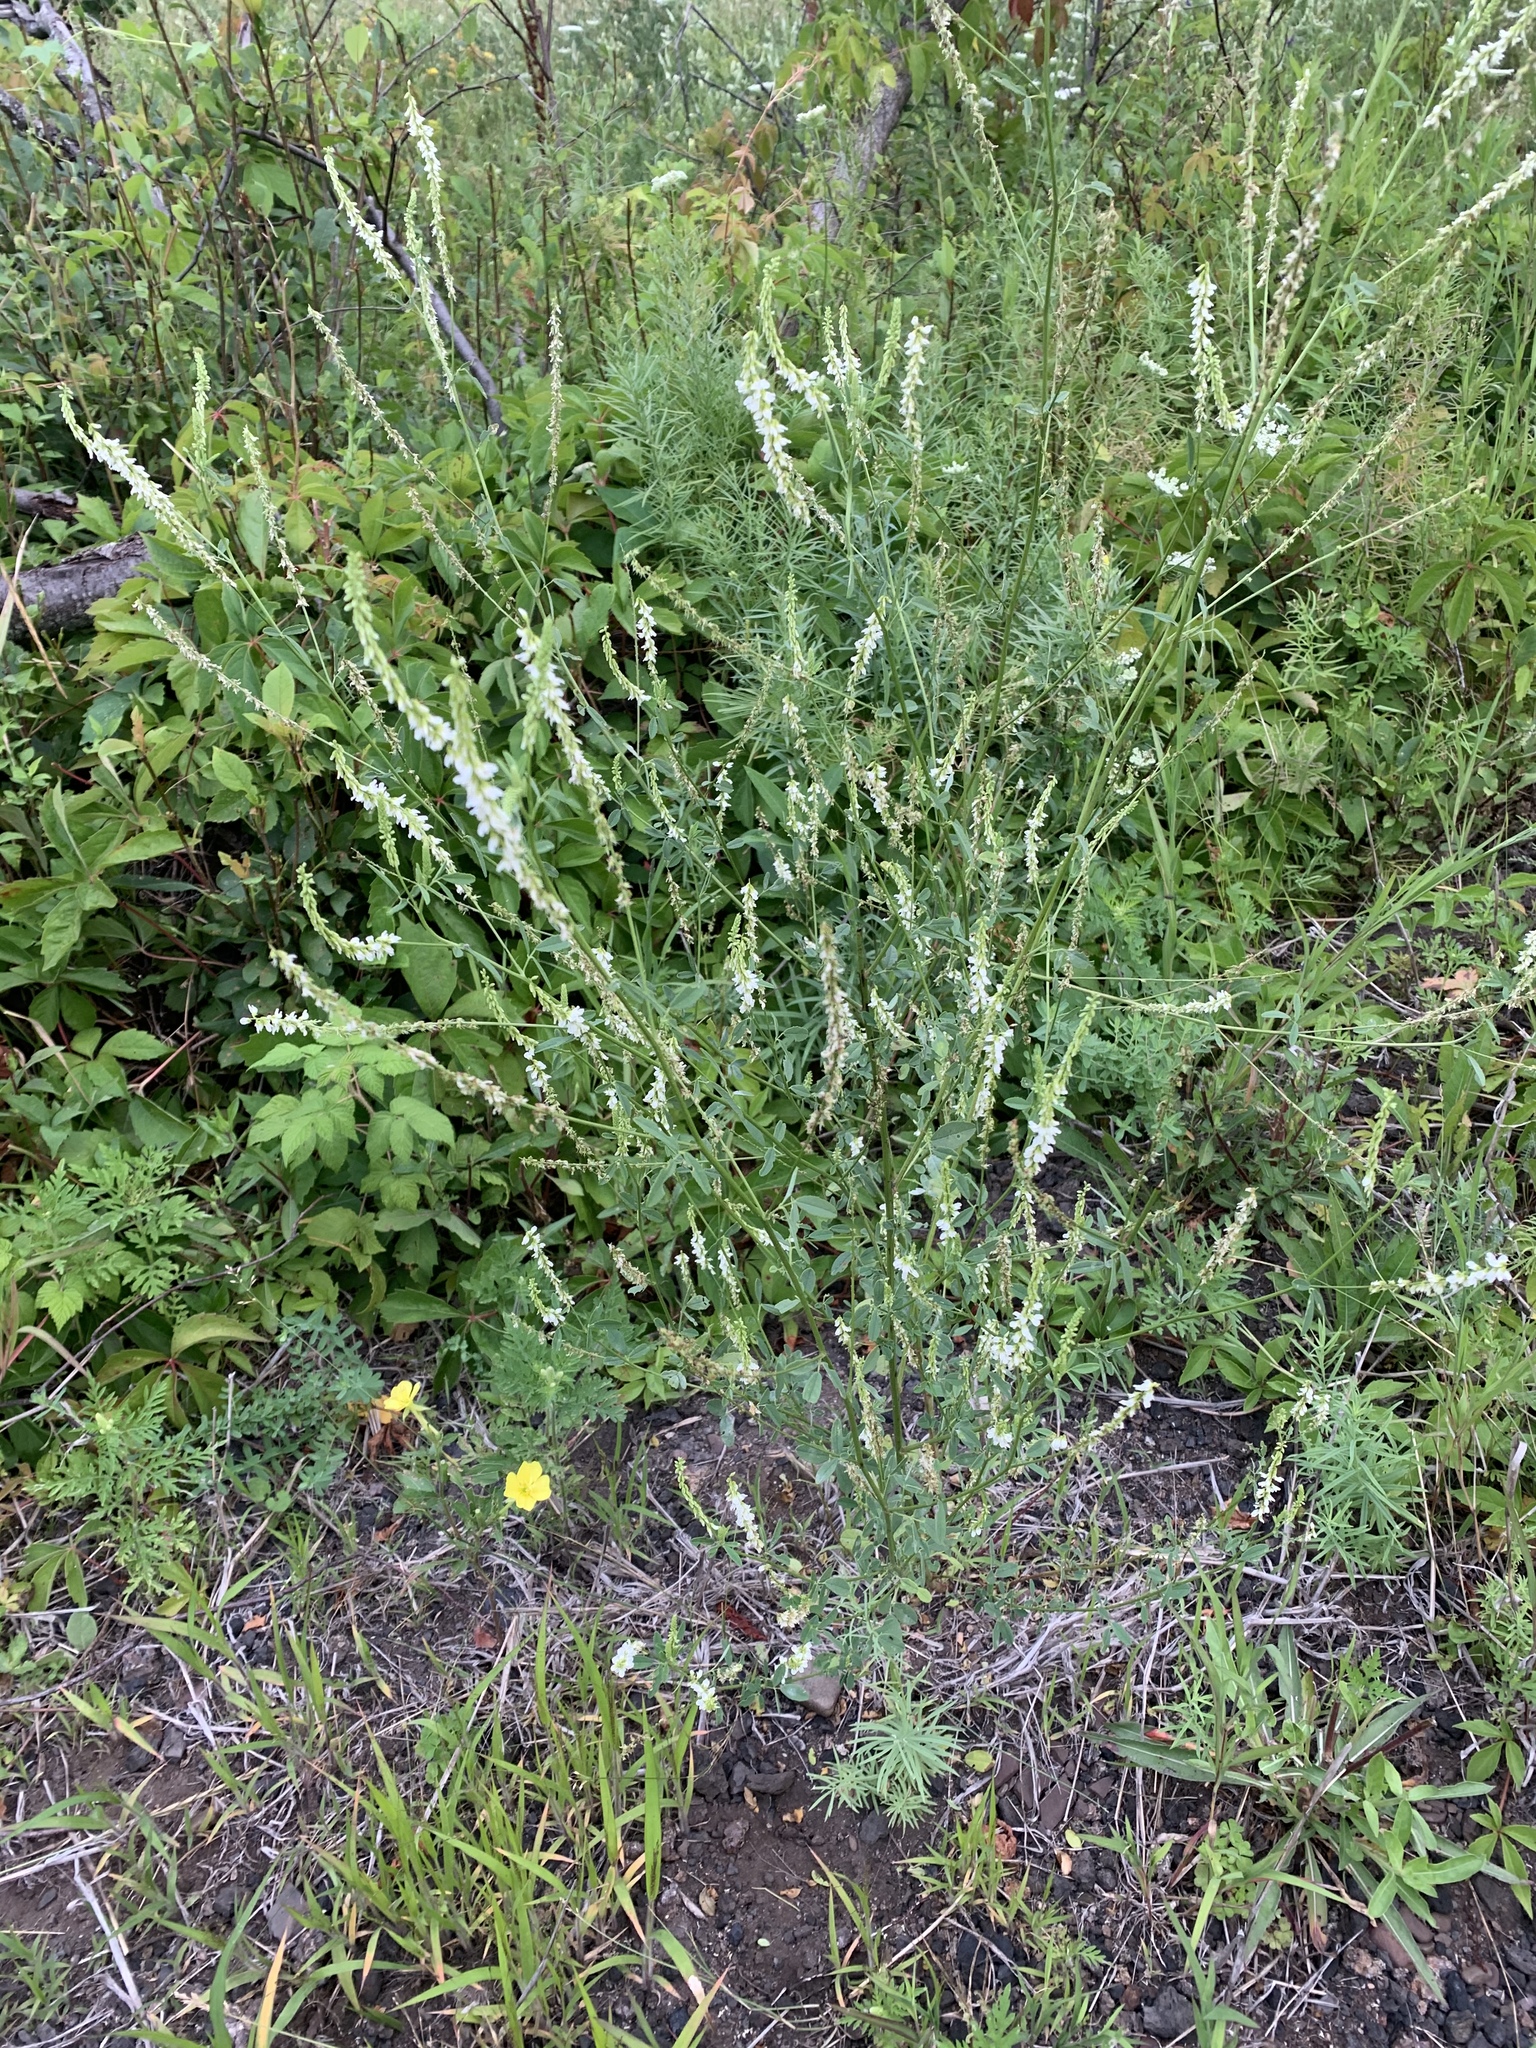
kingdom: Plantae
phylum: Tracheophyta
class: Magnoliopsida
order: Fabales
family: Fabaceae
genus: Melilotus
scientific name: Melilotus albus
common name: White melilot
